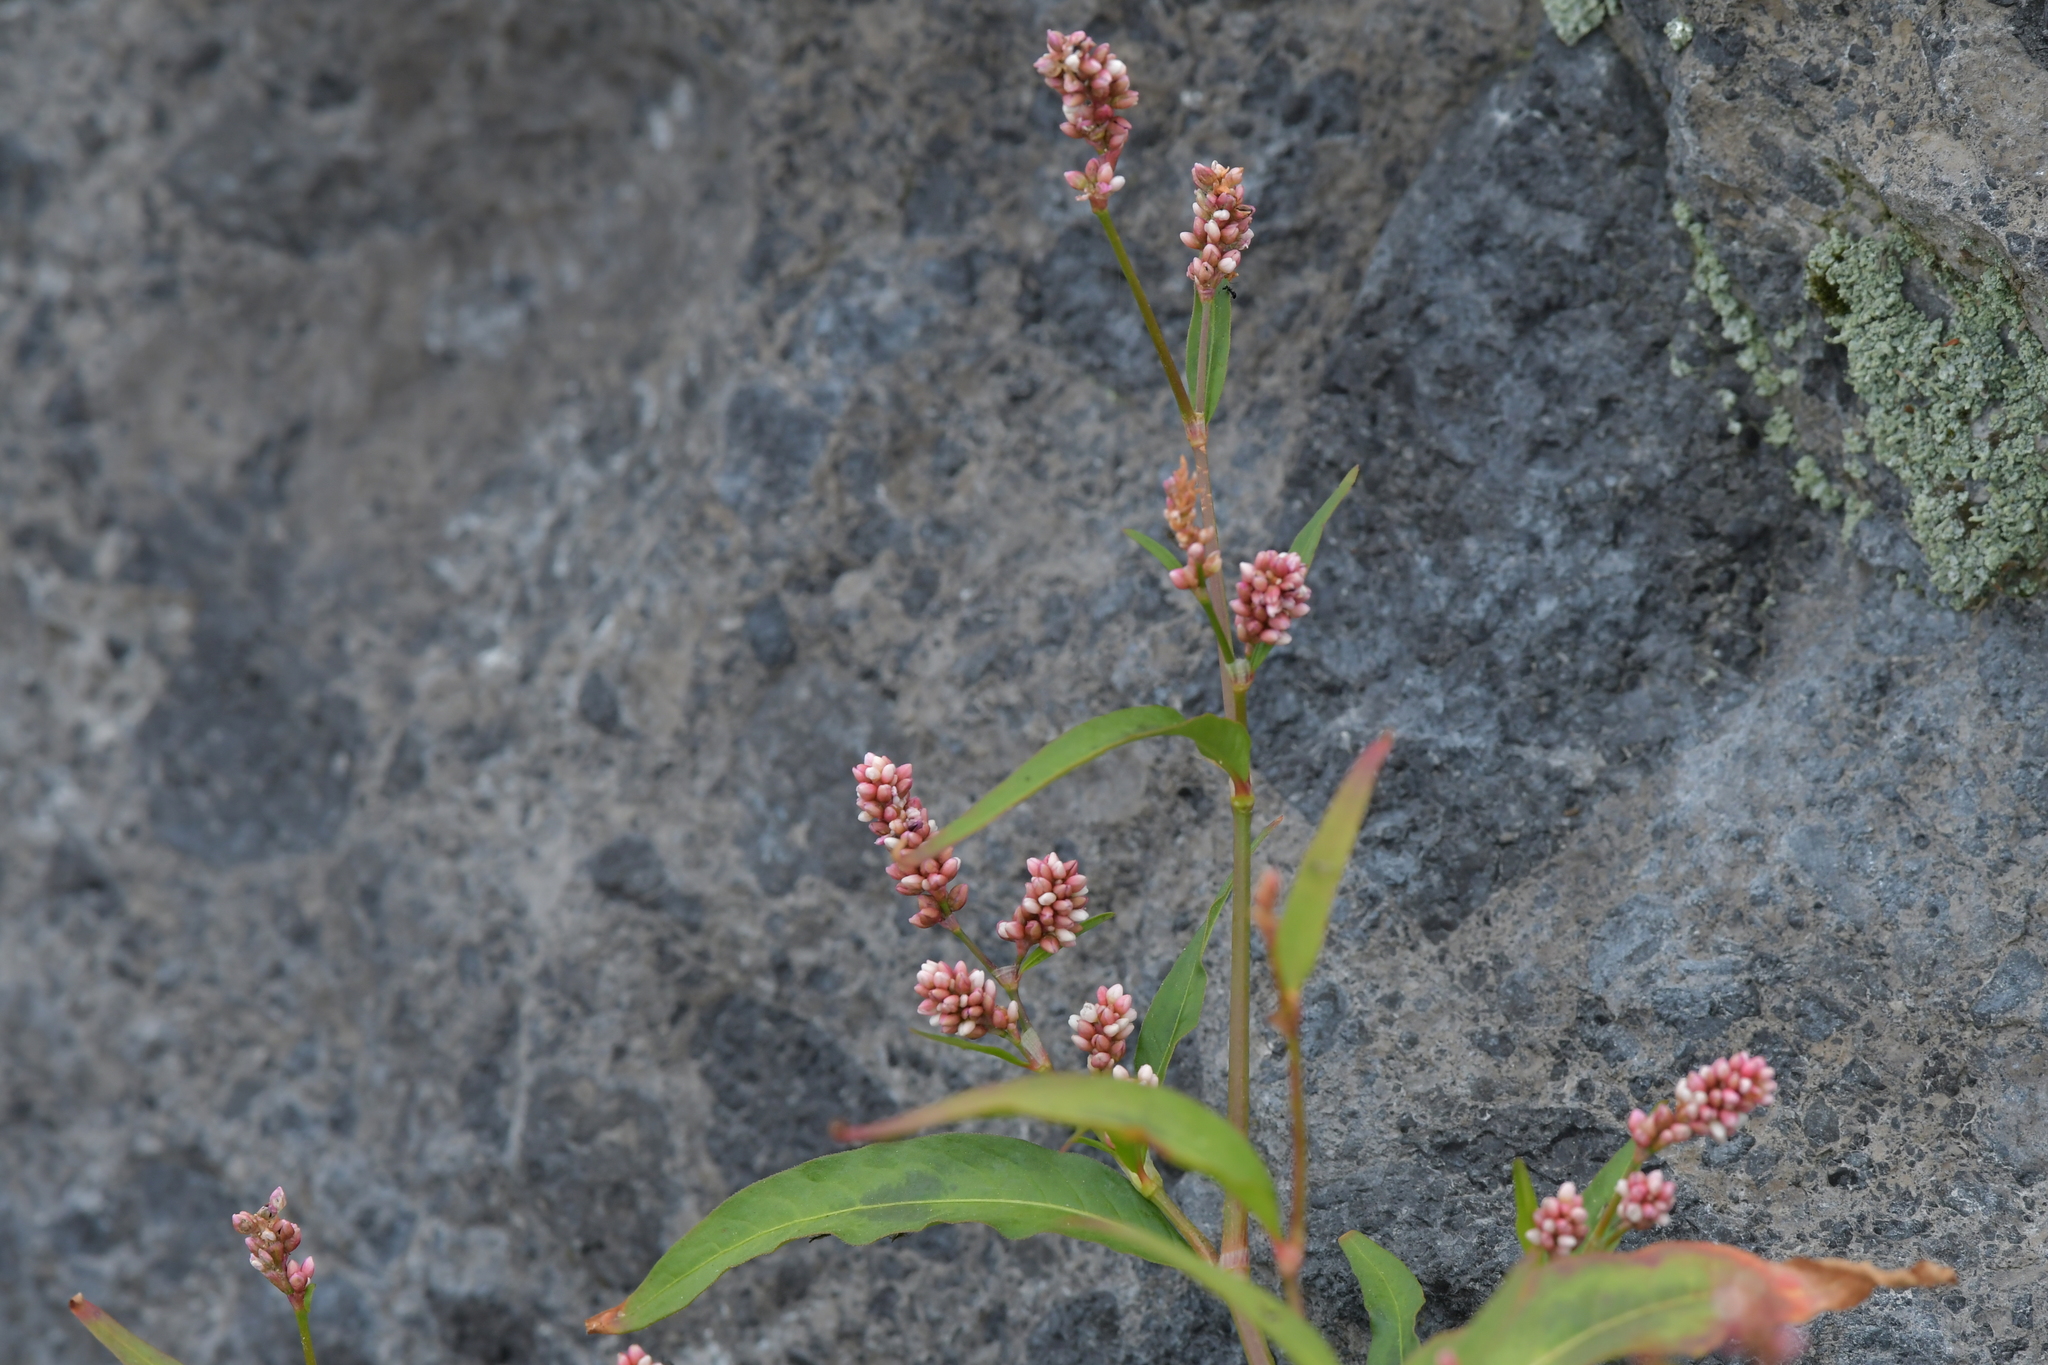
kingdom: Plantae
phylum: Tracheophyta
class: Magnoliopsida
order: Caryophyllales
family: Polygonaceae
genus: Persicaria
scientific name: Persicaria maculosa
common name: Redshank
